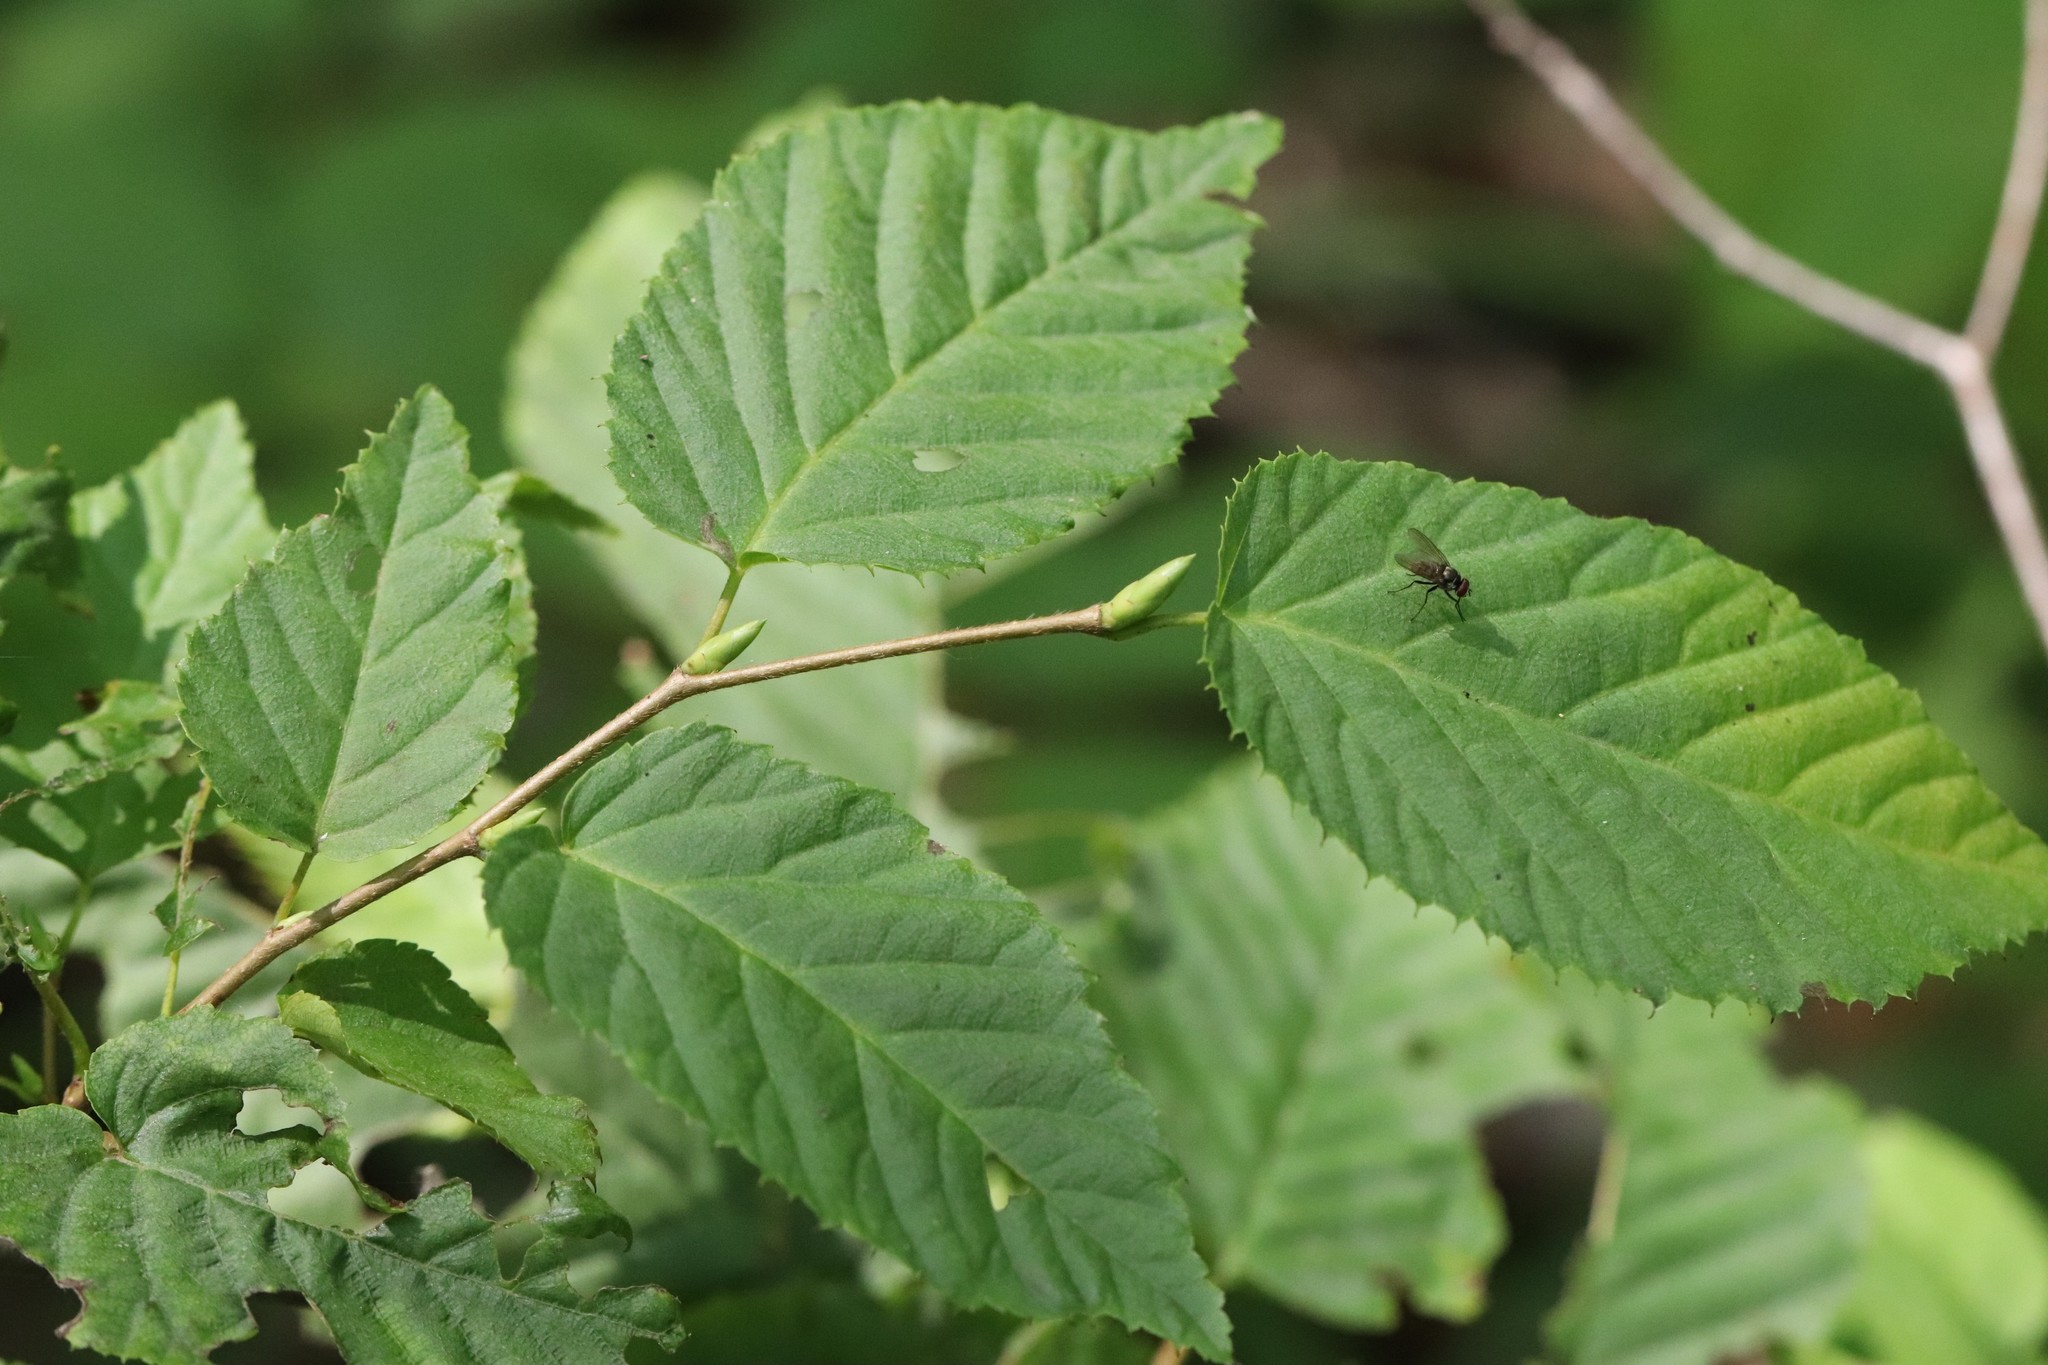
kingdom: Plantae
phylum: Tracheophyta
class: Magnoliopsida
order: Fagales
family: Betulaceae
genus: Carpinus
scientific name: Carpinus cordata
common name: Sawa hornbeam
